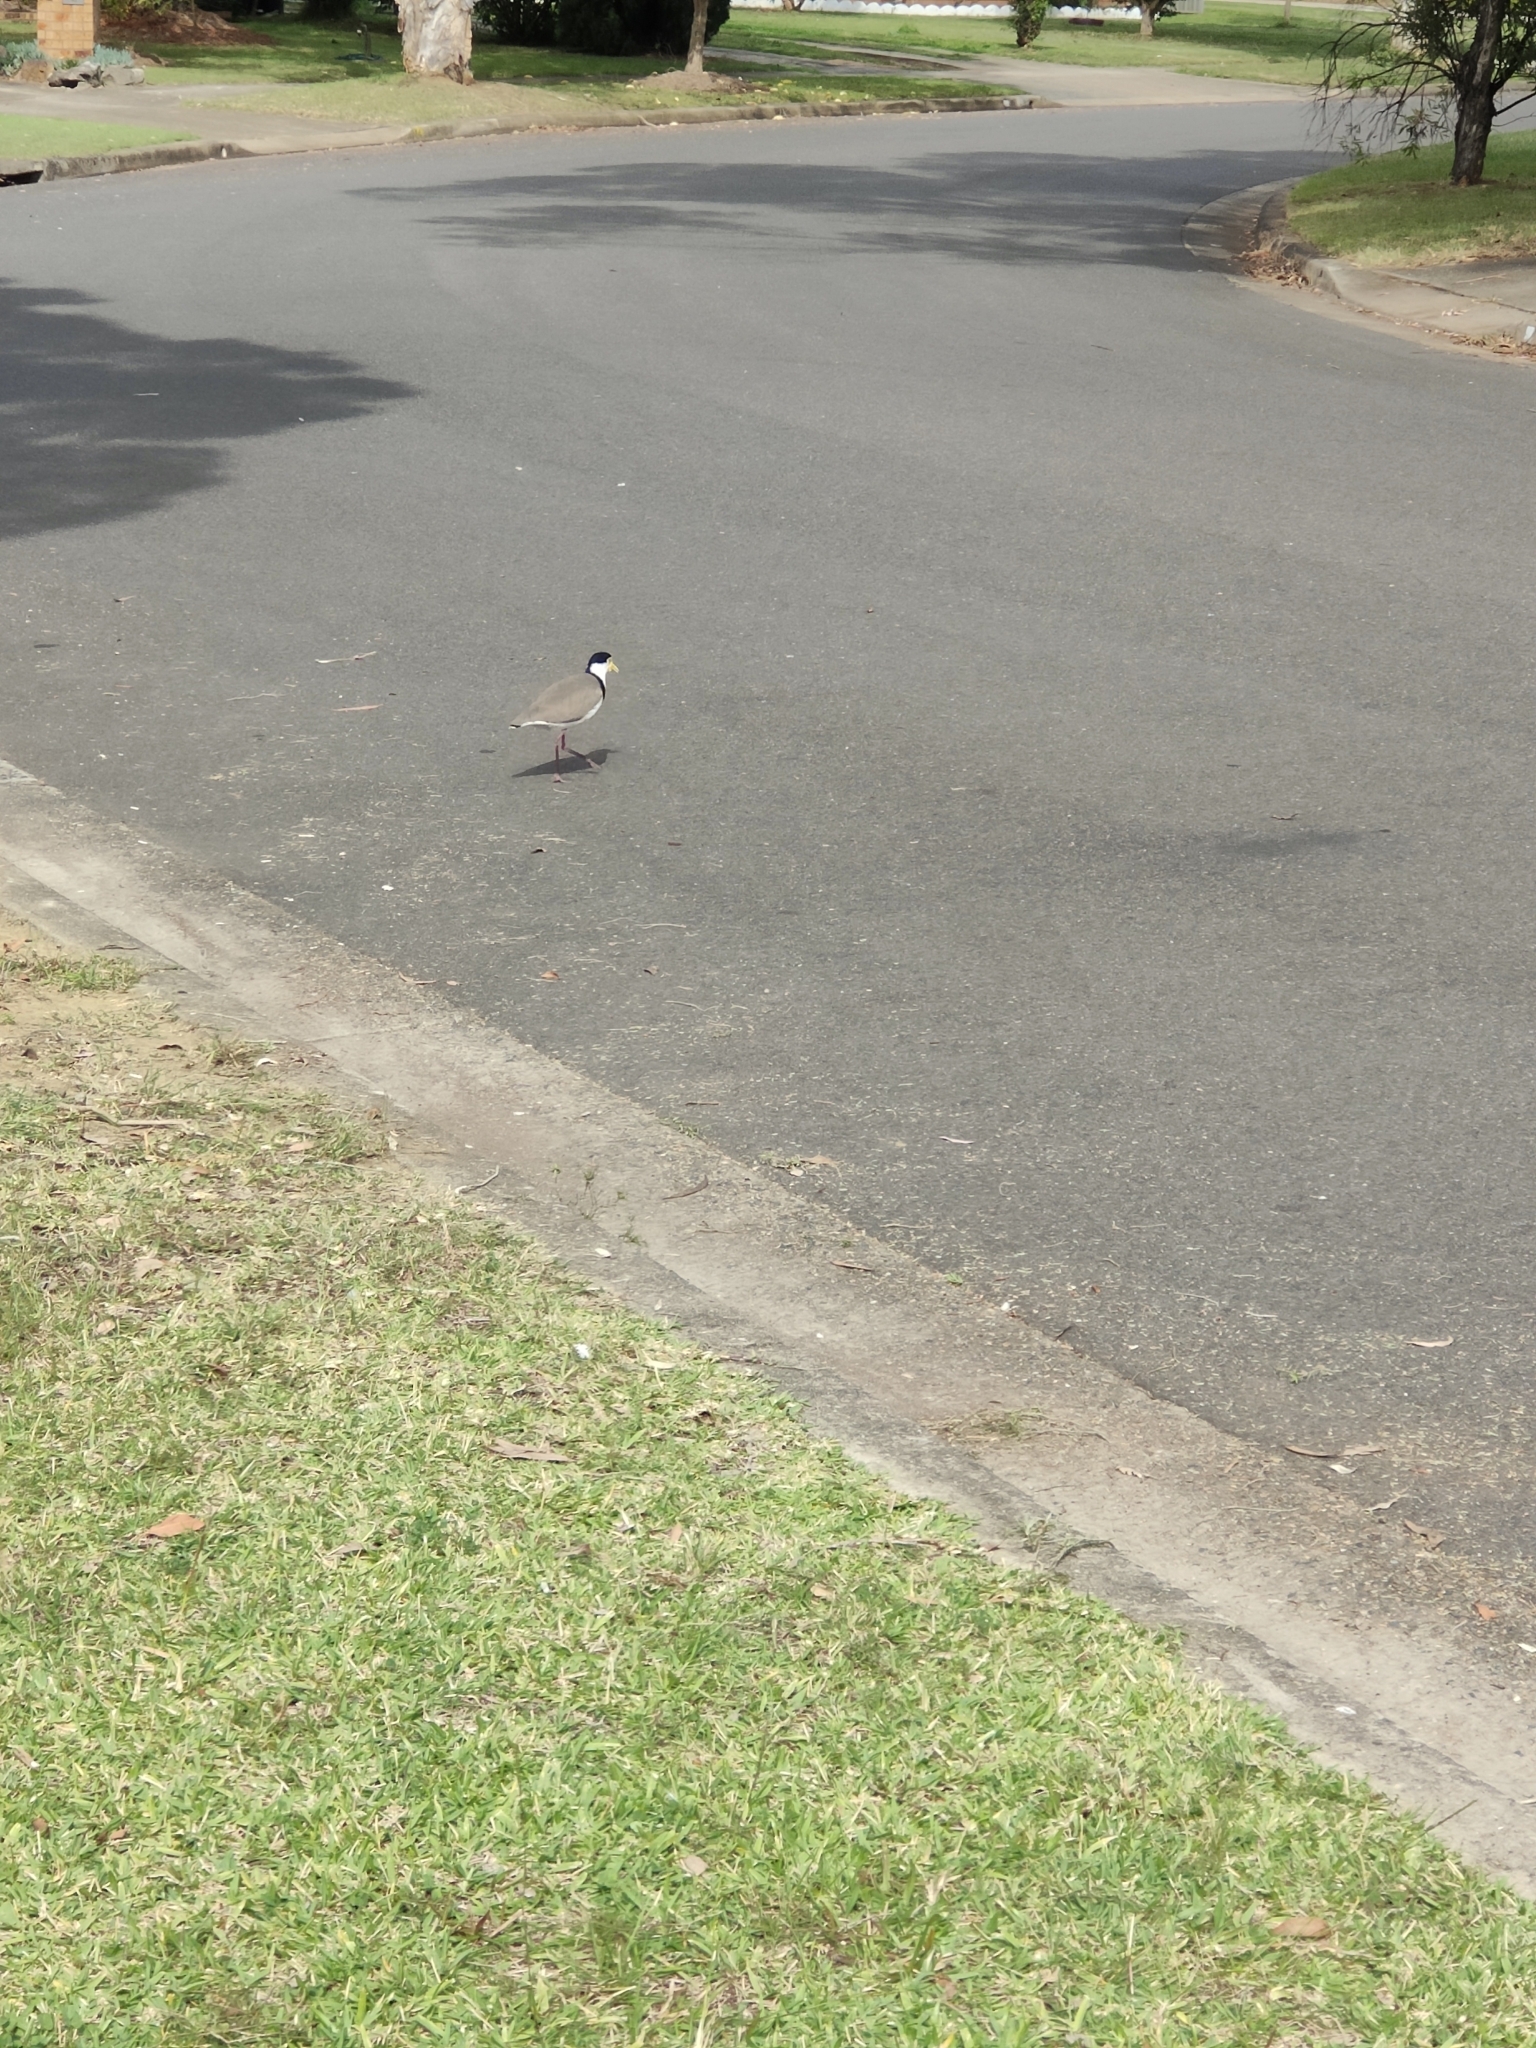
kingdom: Animalia
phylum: Chordata
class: Aves
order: Charadriiformes
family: Charadriidae
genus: Vanellus
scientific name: Vanellus miles
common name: Masked lapwing
